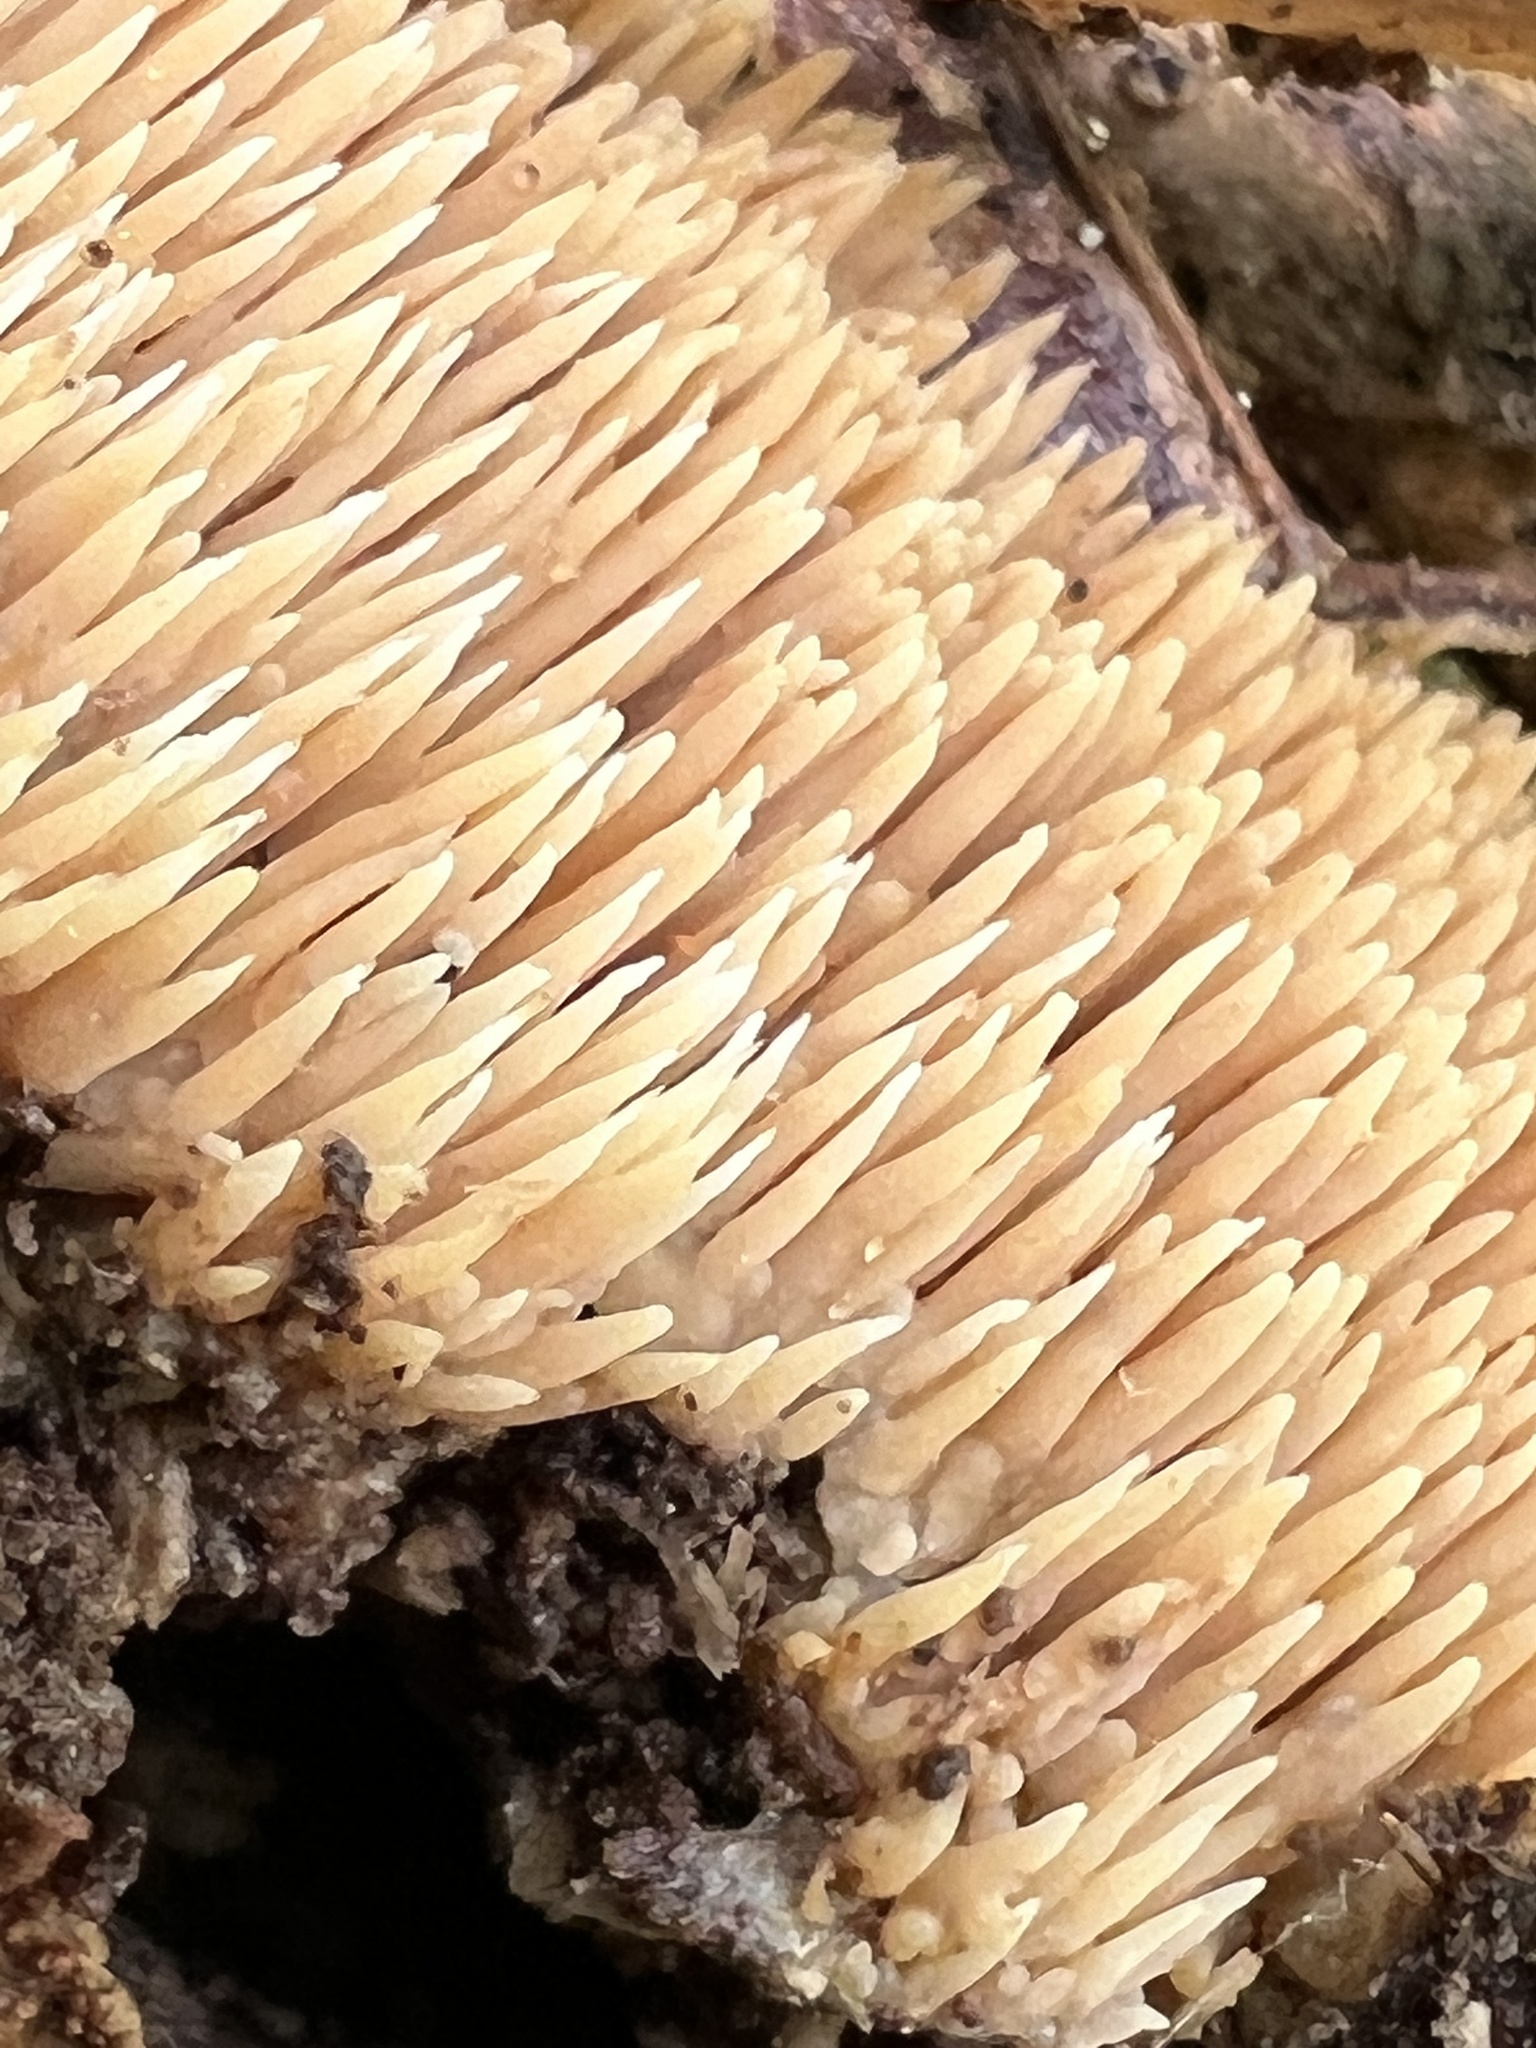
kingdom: Fungi
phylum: Basidiomycota
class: Agaricomycetes
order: Agaricales
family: Radulomycetaceae
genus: Radulomyces
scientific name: Radulomyces copelandii
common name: Asian beauty
